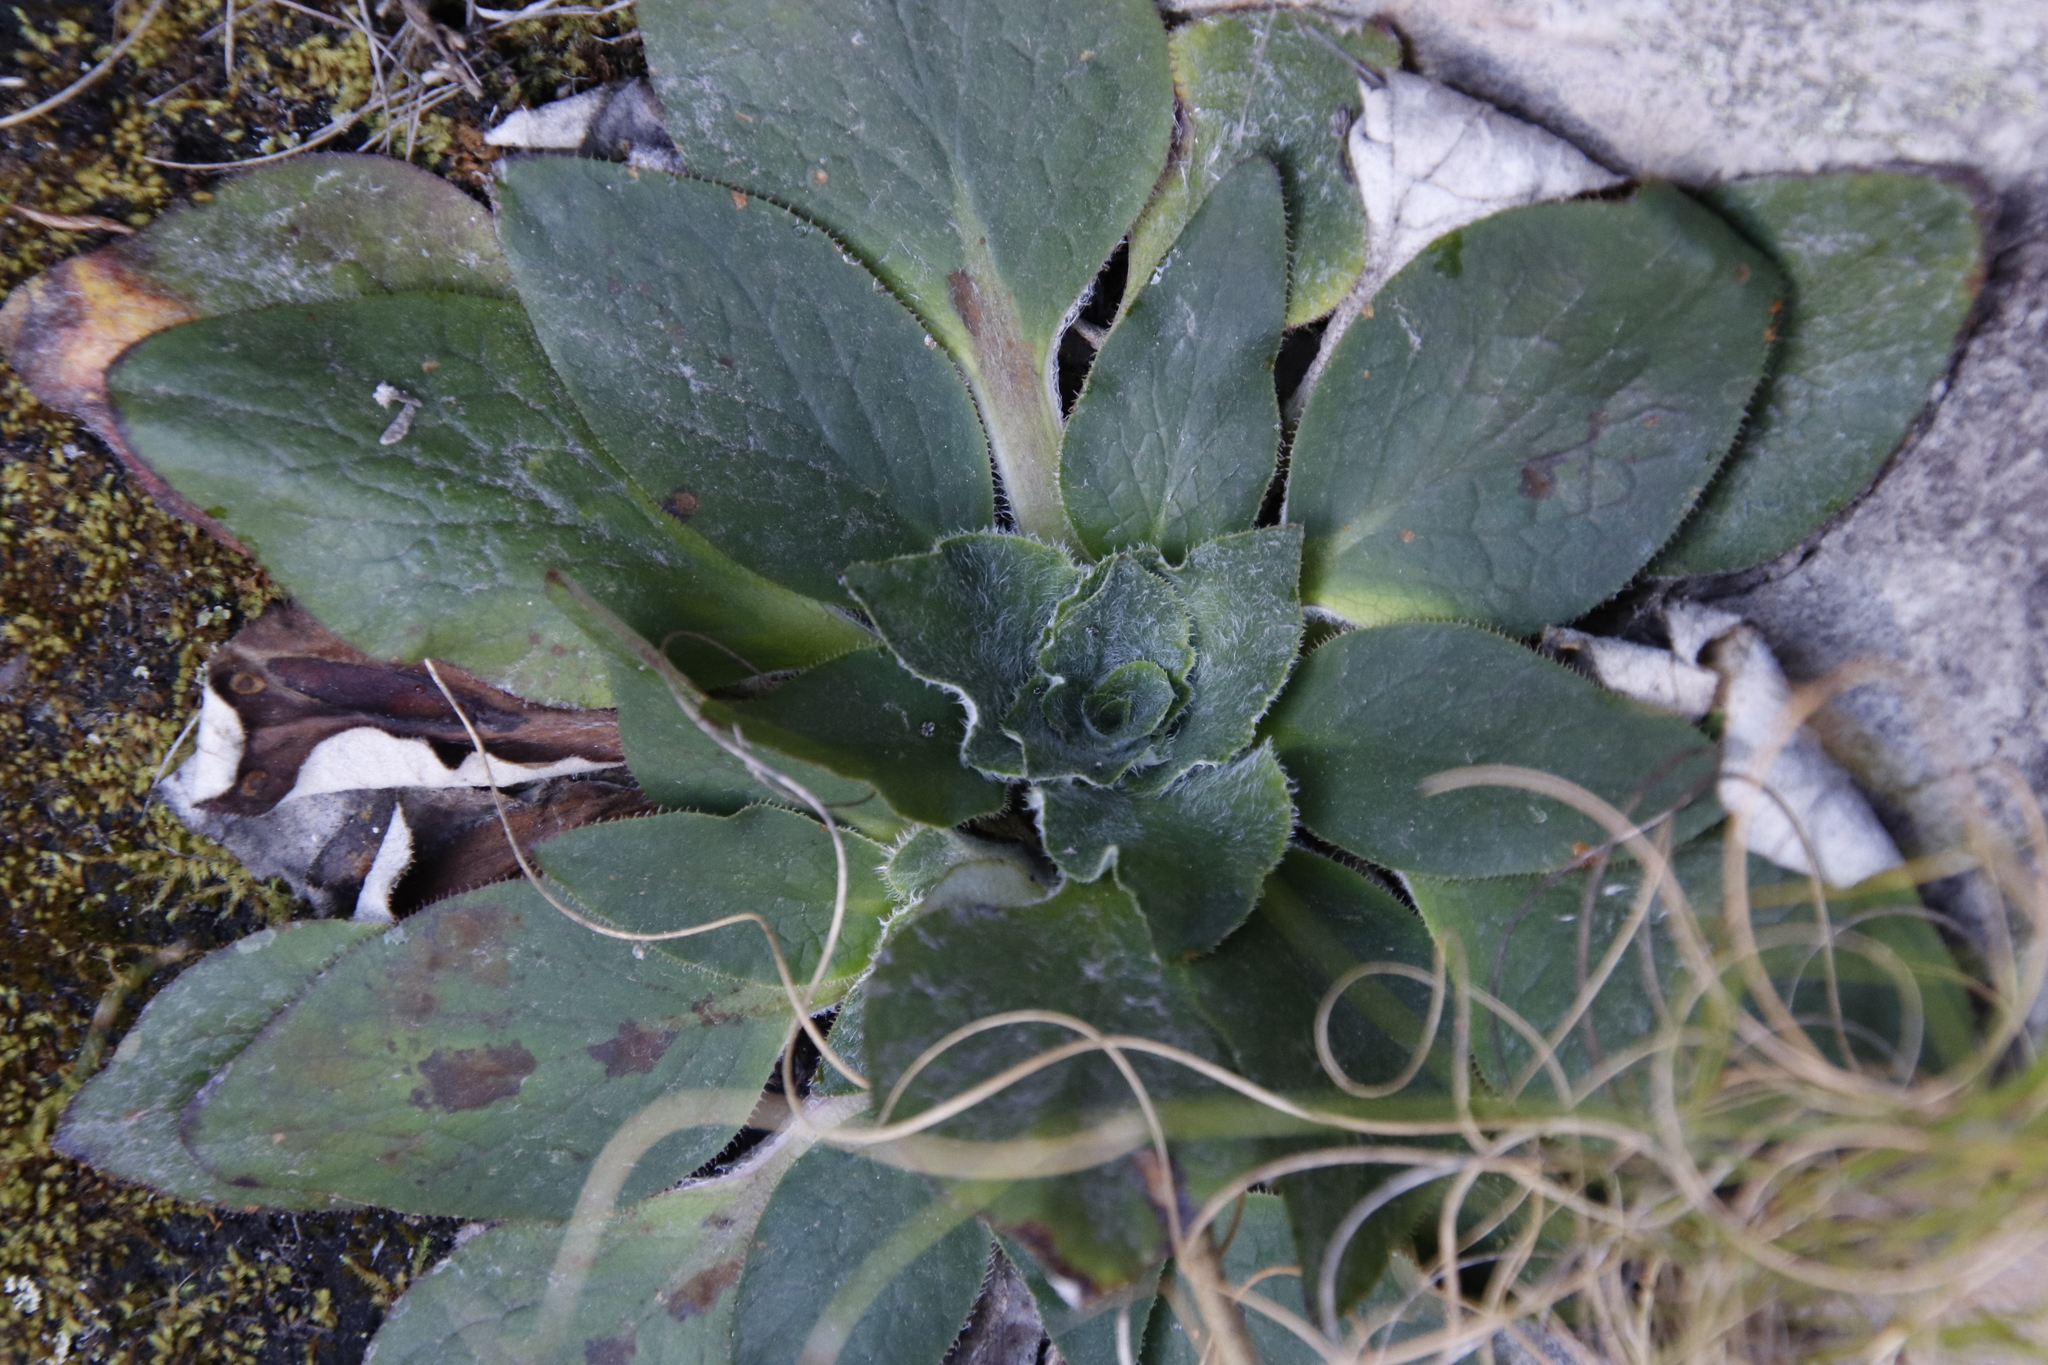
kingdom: Plantae
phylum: Tracheophyta
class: Magnoliopsida
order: Apiales
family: Apiaceae
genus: Hermas
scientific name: Hermas ciliata
